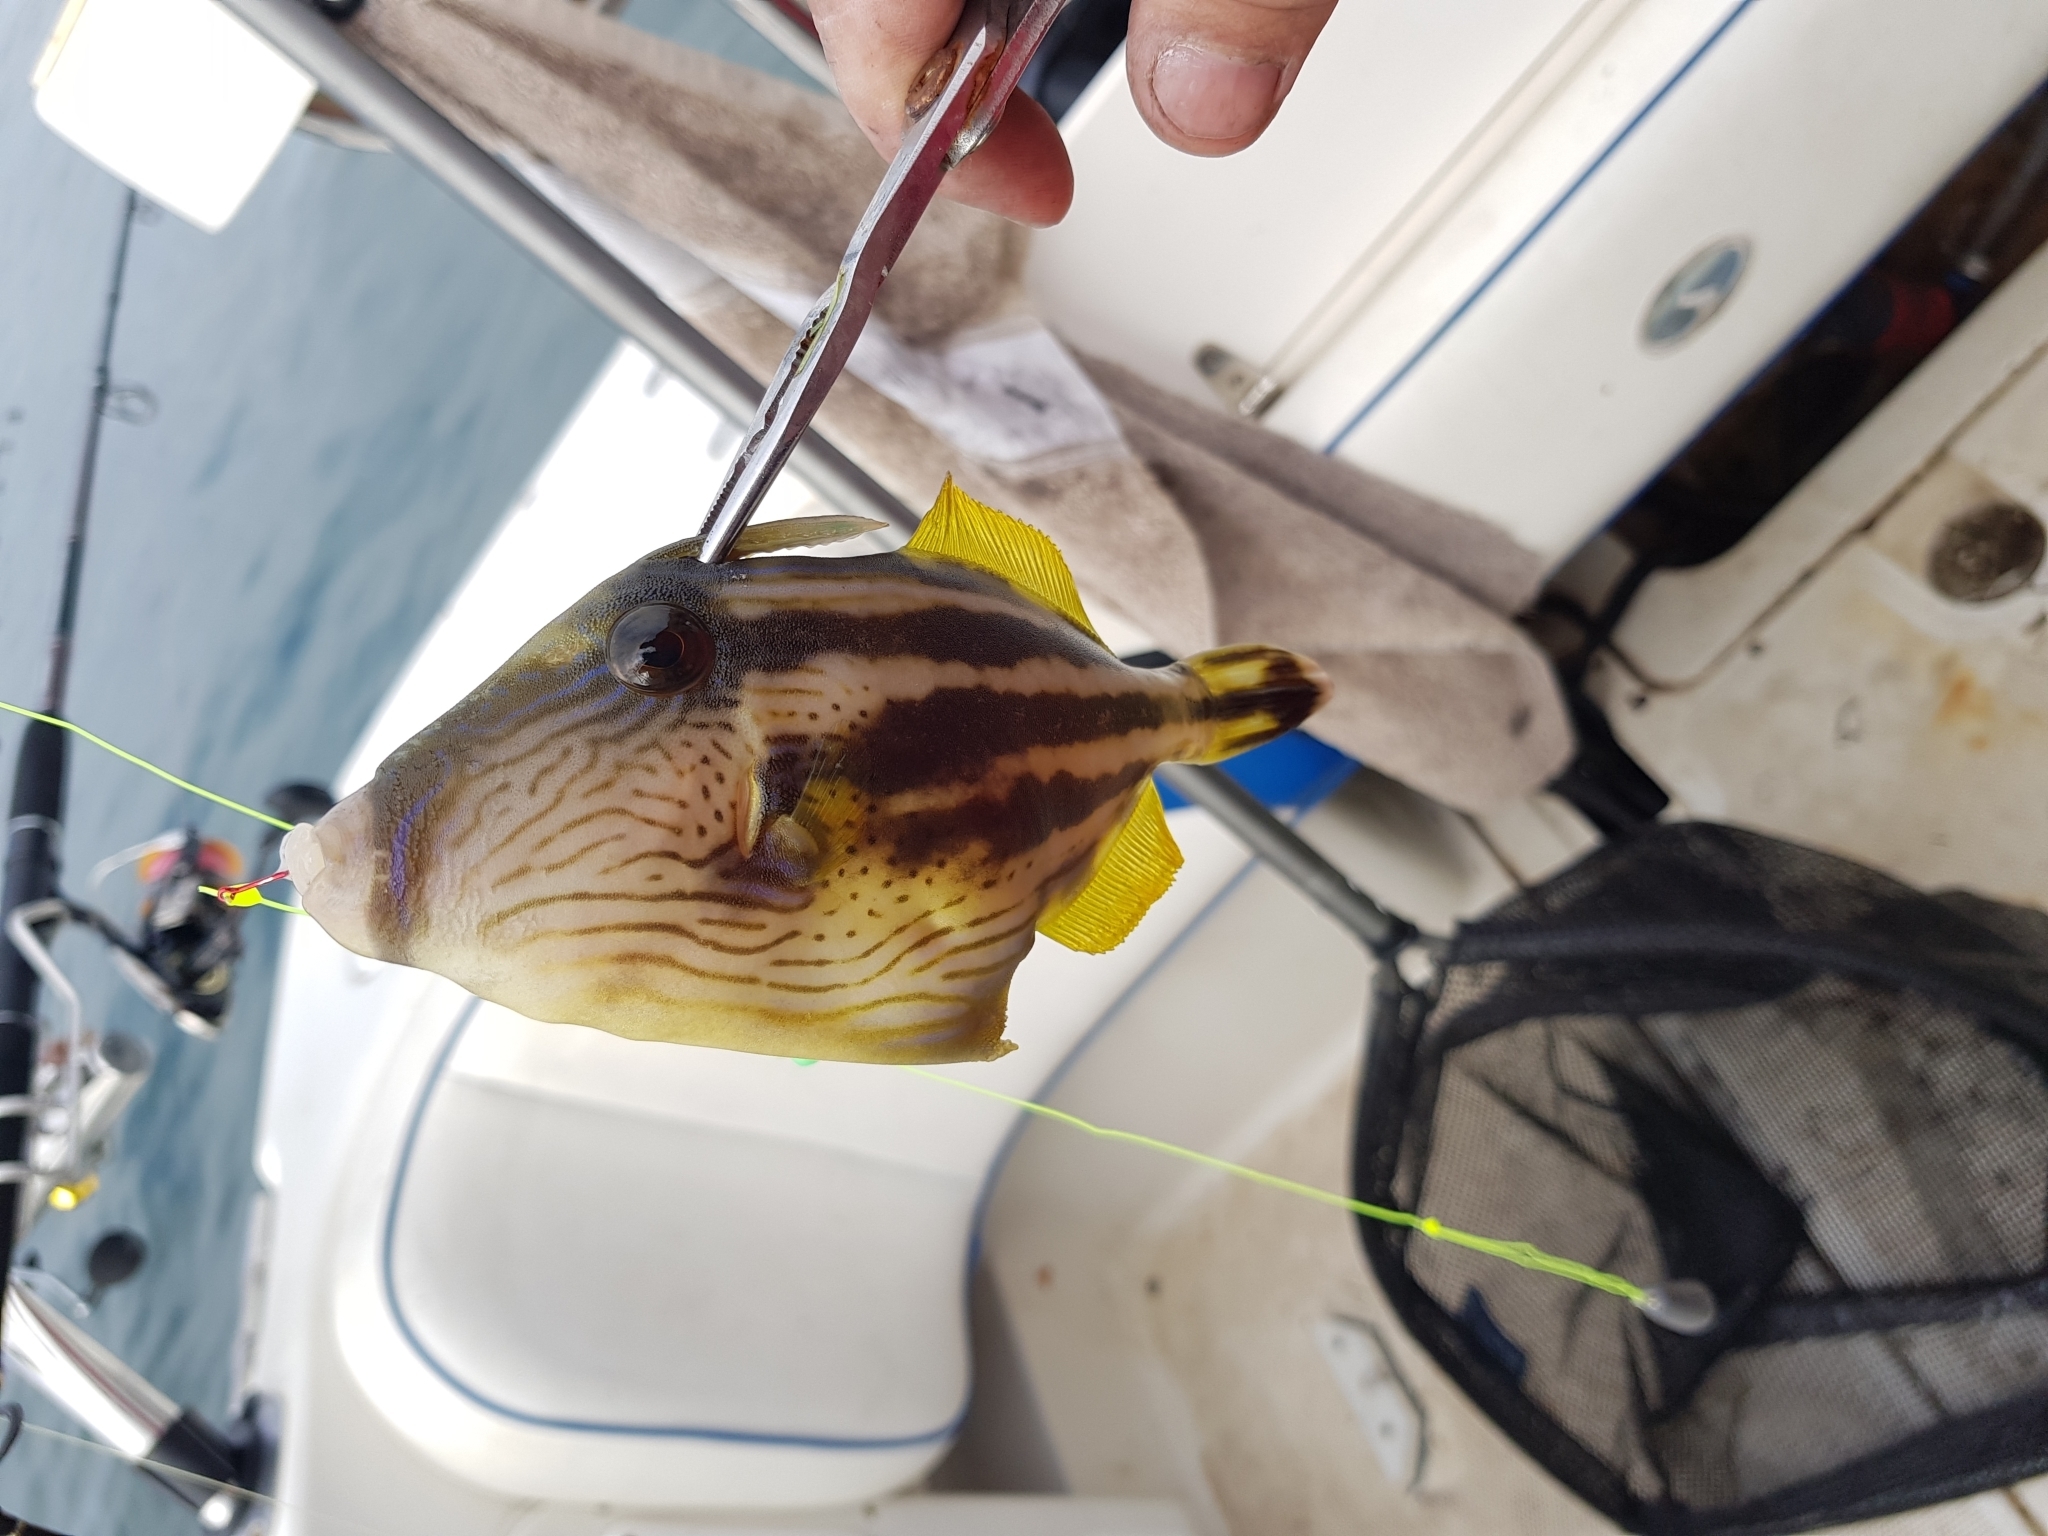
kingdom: Animalia
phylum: Chordata
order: Tetraodontiformes
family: Monacanthidae
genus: Meuschenia
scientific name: Meuschenia freycineti
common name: Freycinet's leatherjacket
